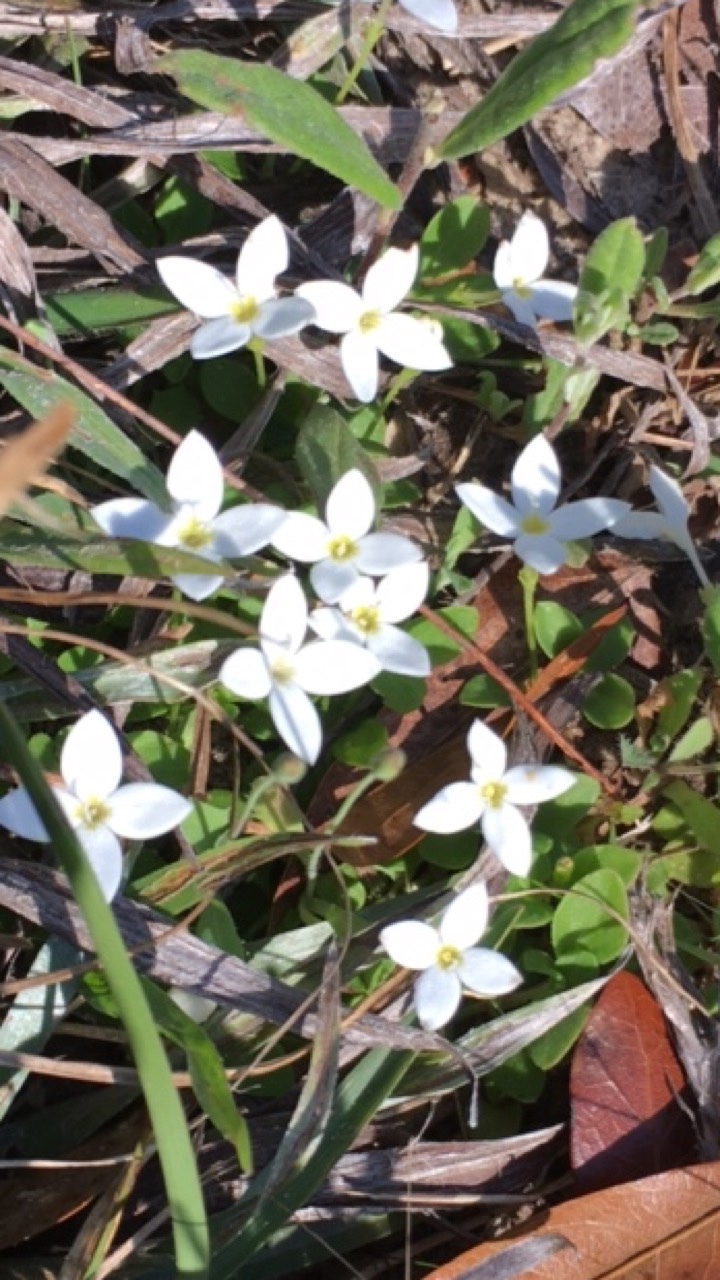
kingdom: Plantae
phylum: Tracheophyta
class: Magnoliopsida
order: Gentianales
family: Rubiaceae
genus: Houstonia
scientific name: Houstonia procumbens
